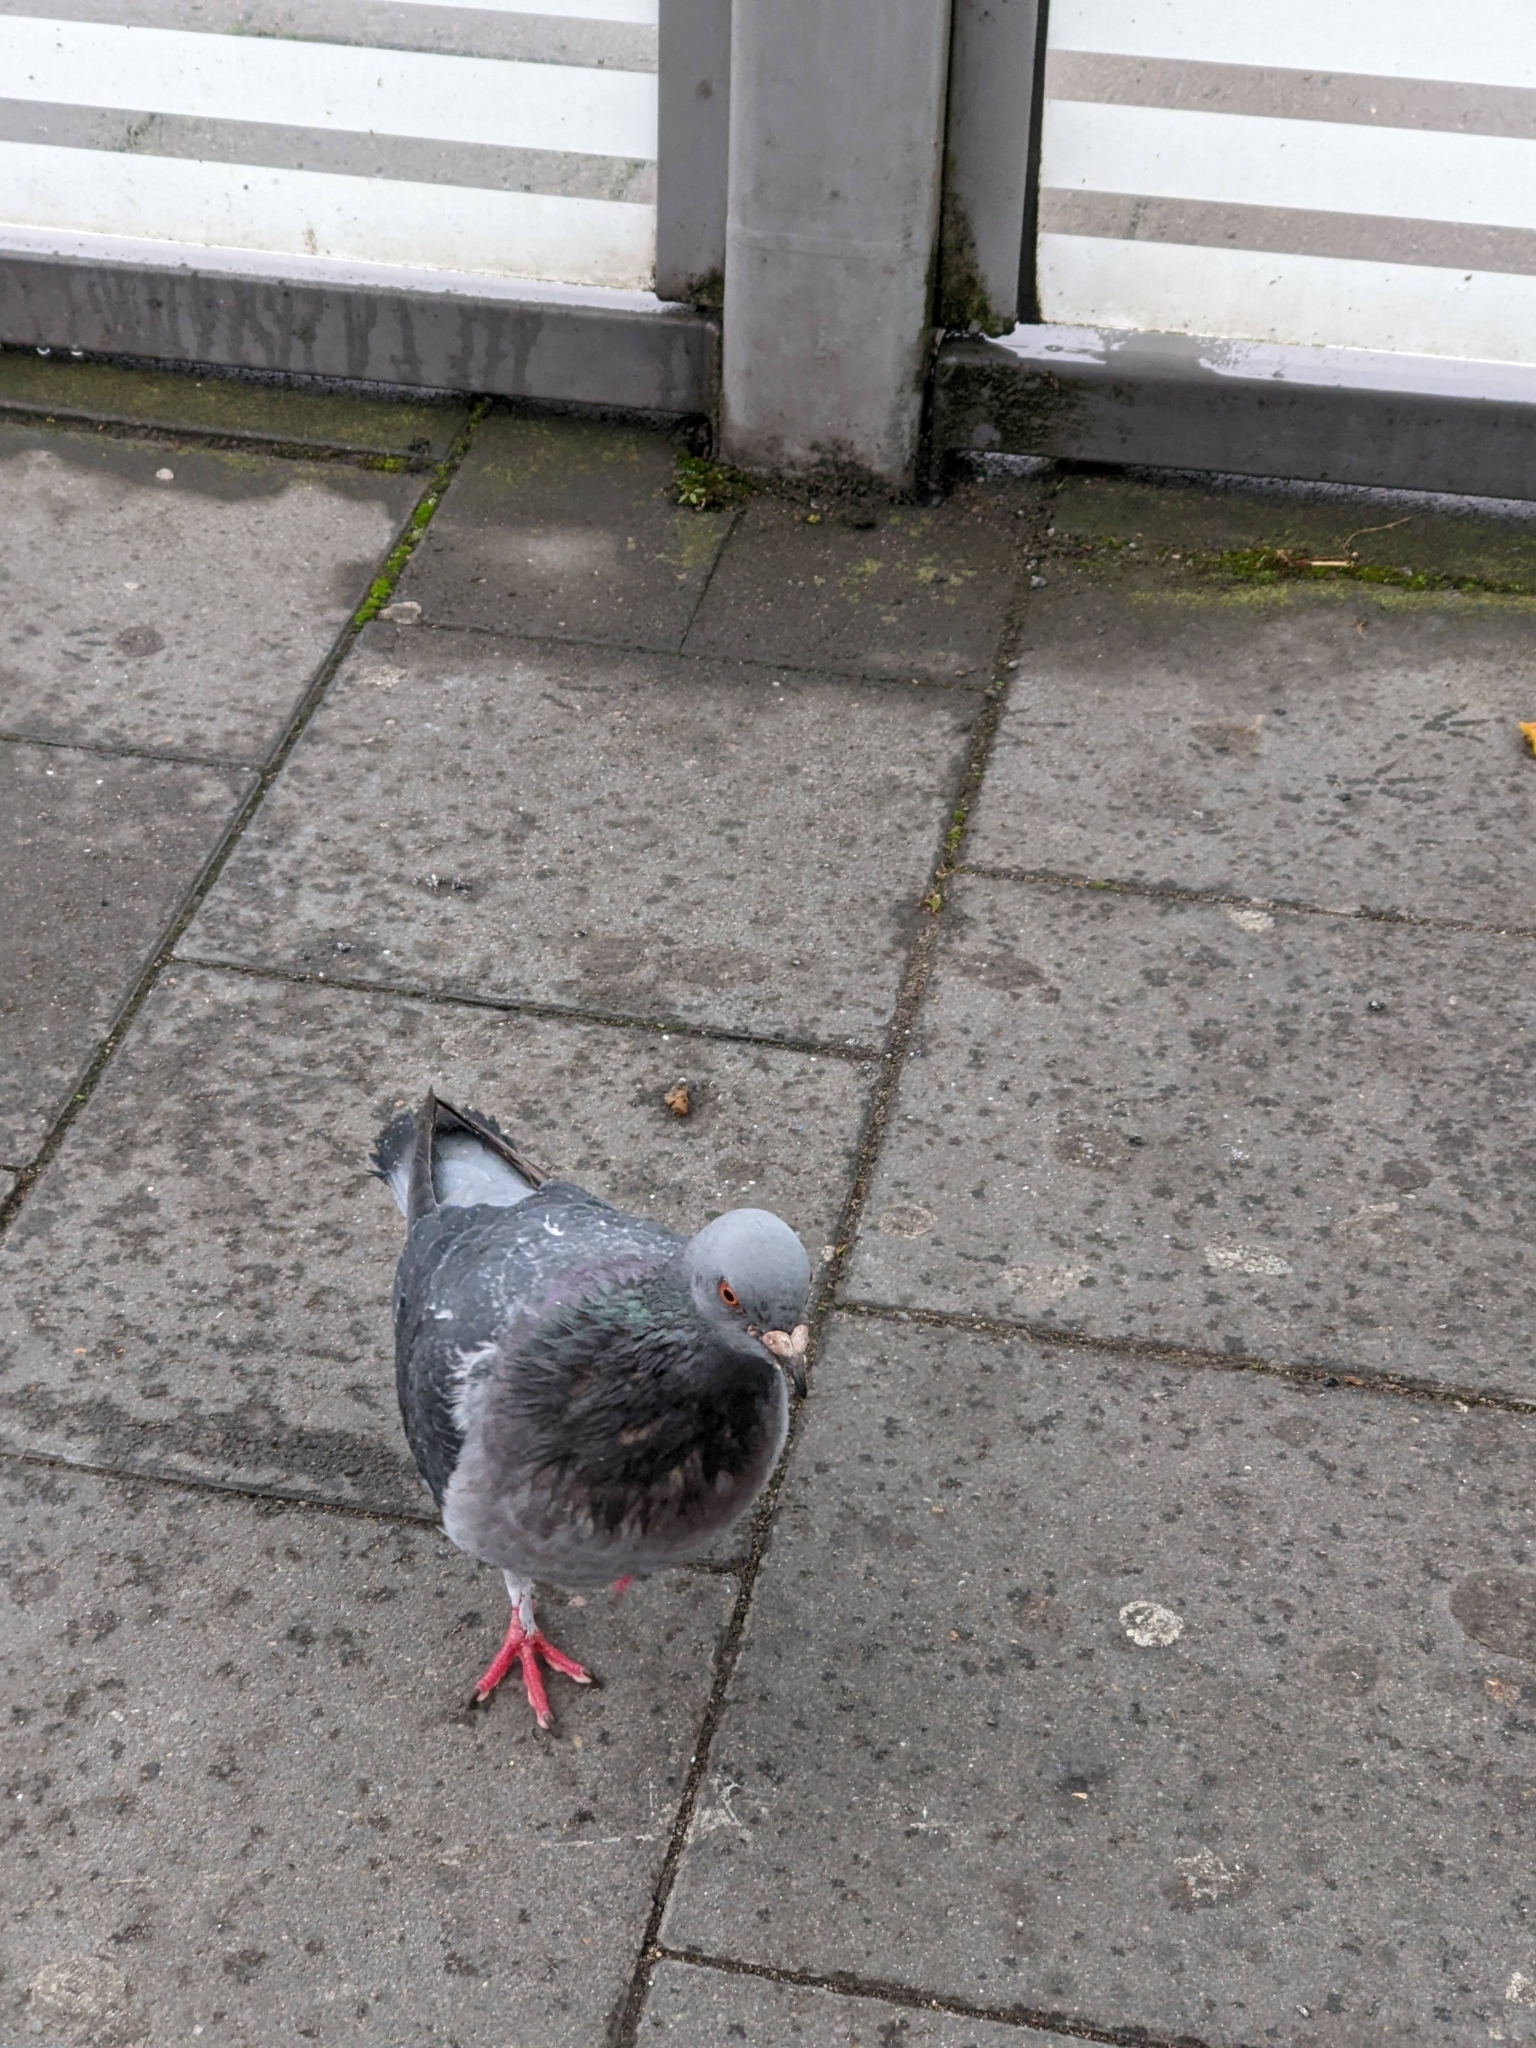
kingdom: Animalia
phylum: Chordata
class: Aves
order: Columbiformes
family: Columbidae
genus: Columba
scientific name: Columba livia
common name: Rock pigeon
